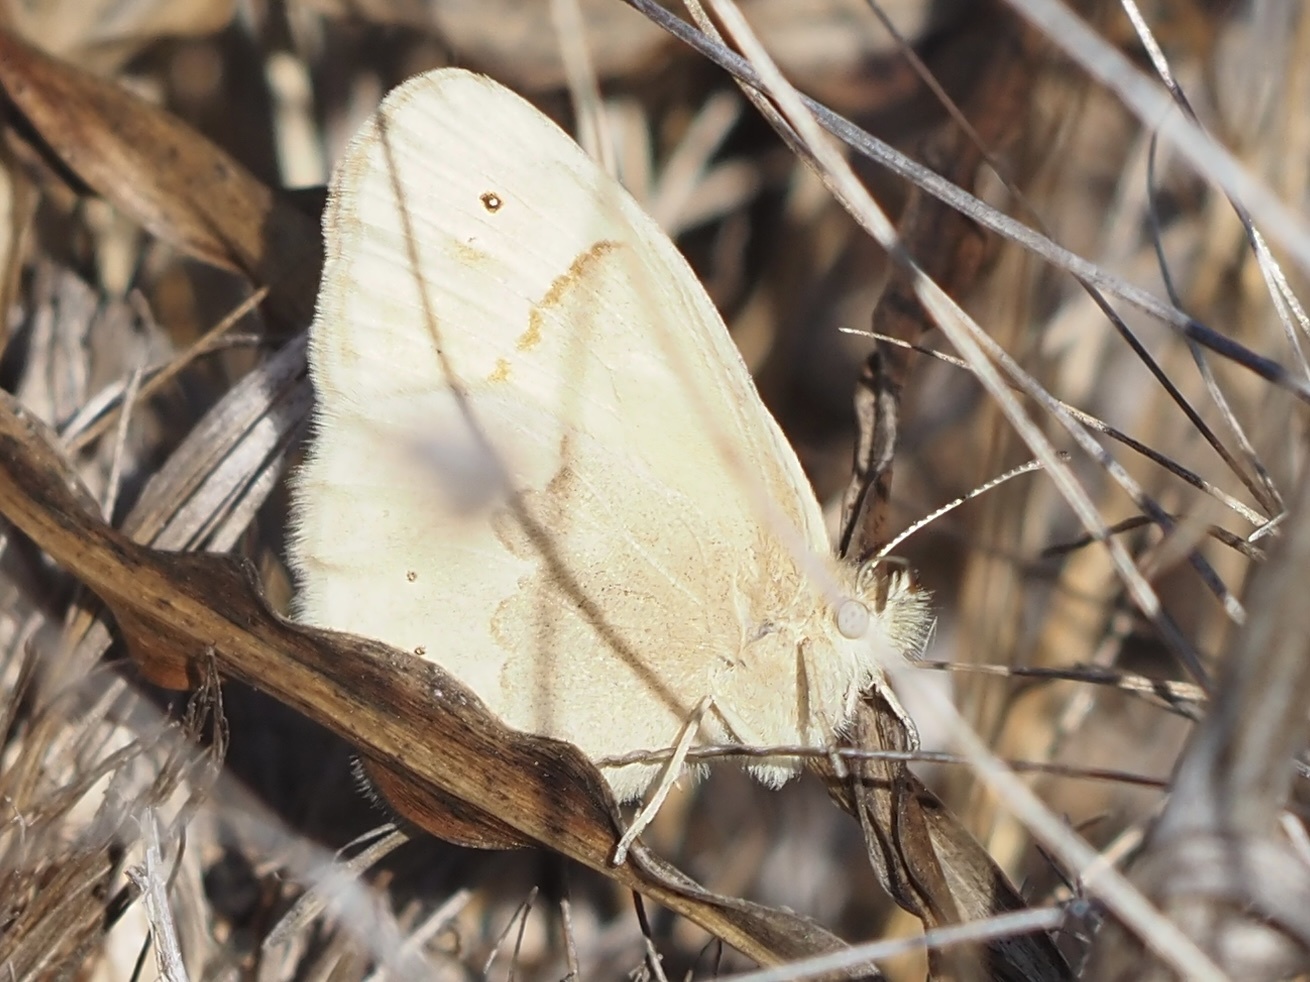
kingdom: Animalia
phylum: Arthropoda
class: Insecta
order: Lepidoptera
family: Nymphalidae
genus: Coenonympha
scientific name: Coenonympha california
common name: Common ringlet
